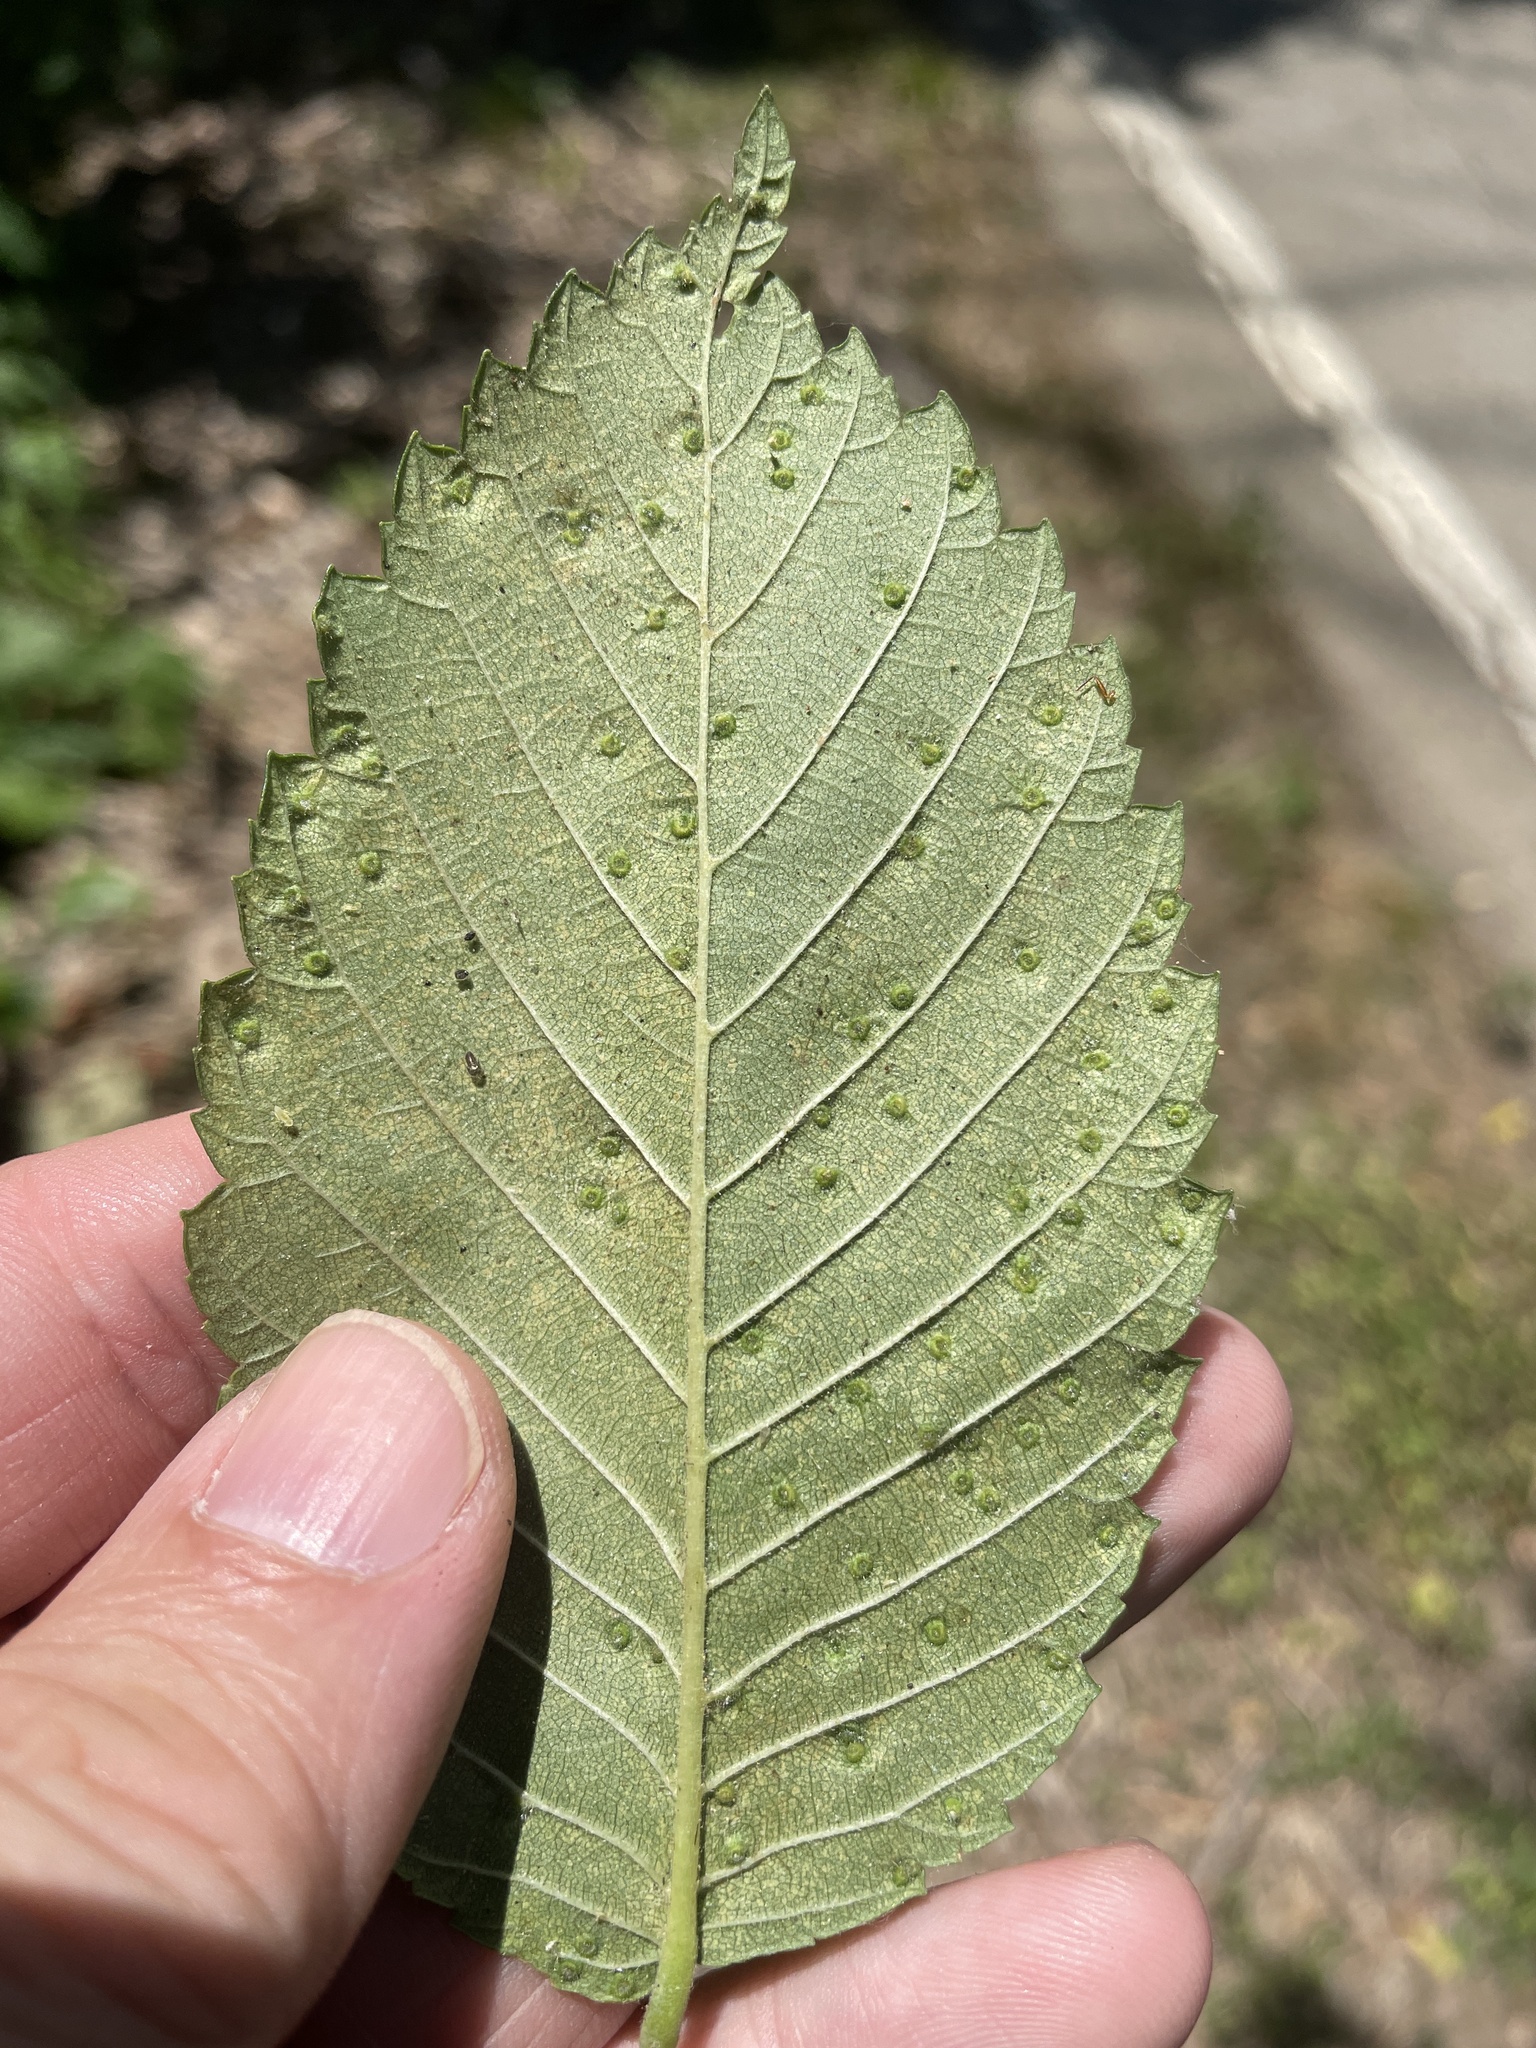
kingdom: Animalia
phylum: Arthropoda
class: Arachnida
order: Trombidiformes
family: Eriophyidae
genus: Aceria
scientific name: Aceria brevipunctata
